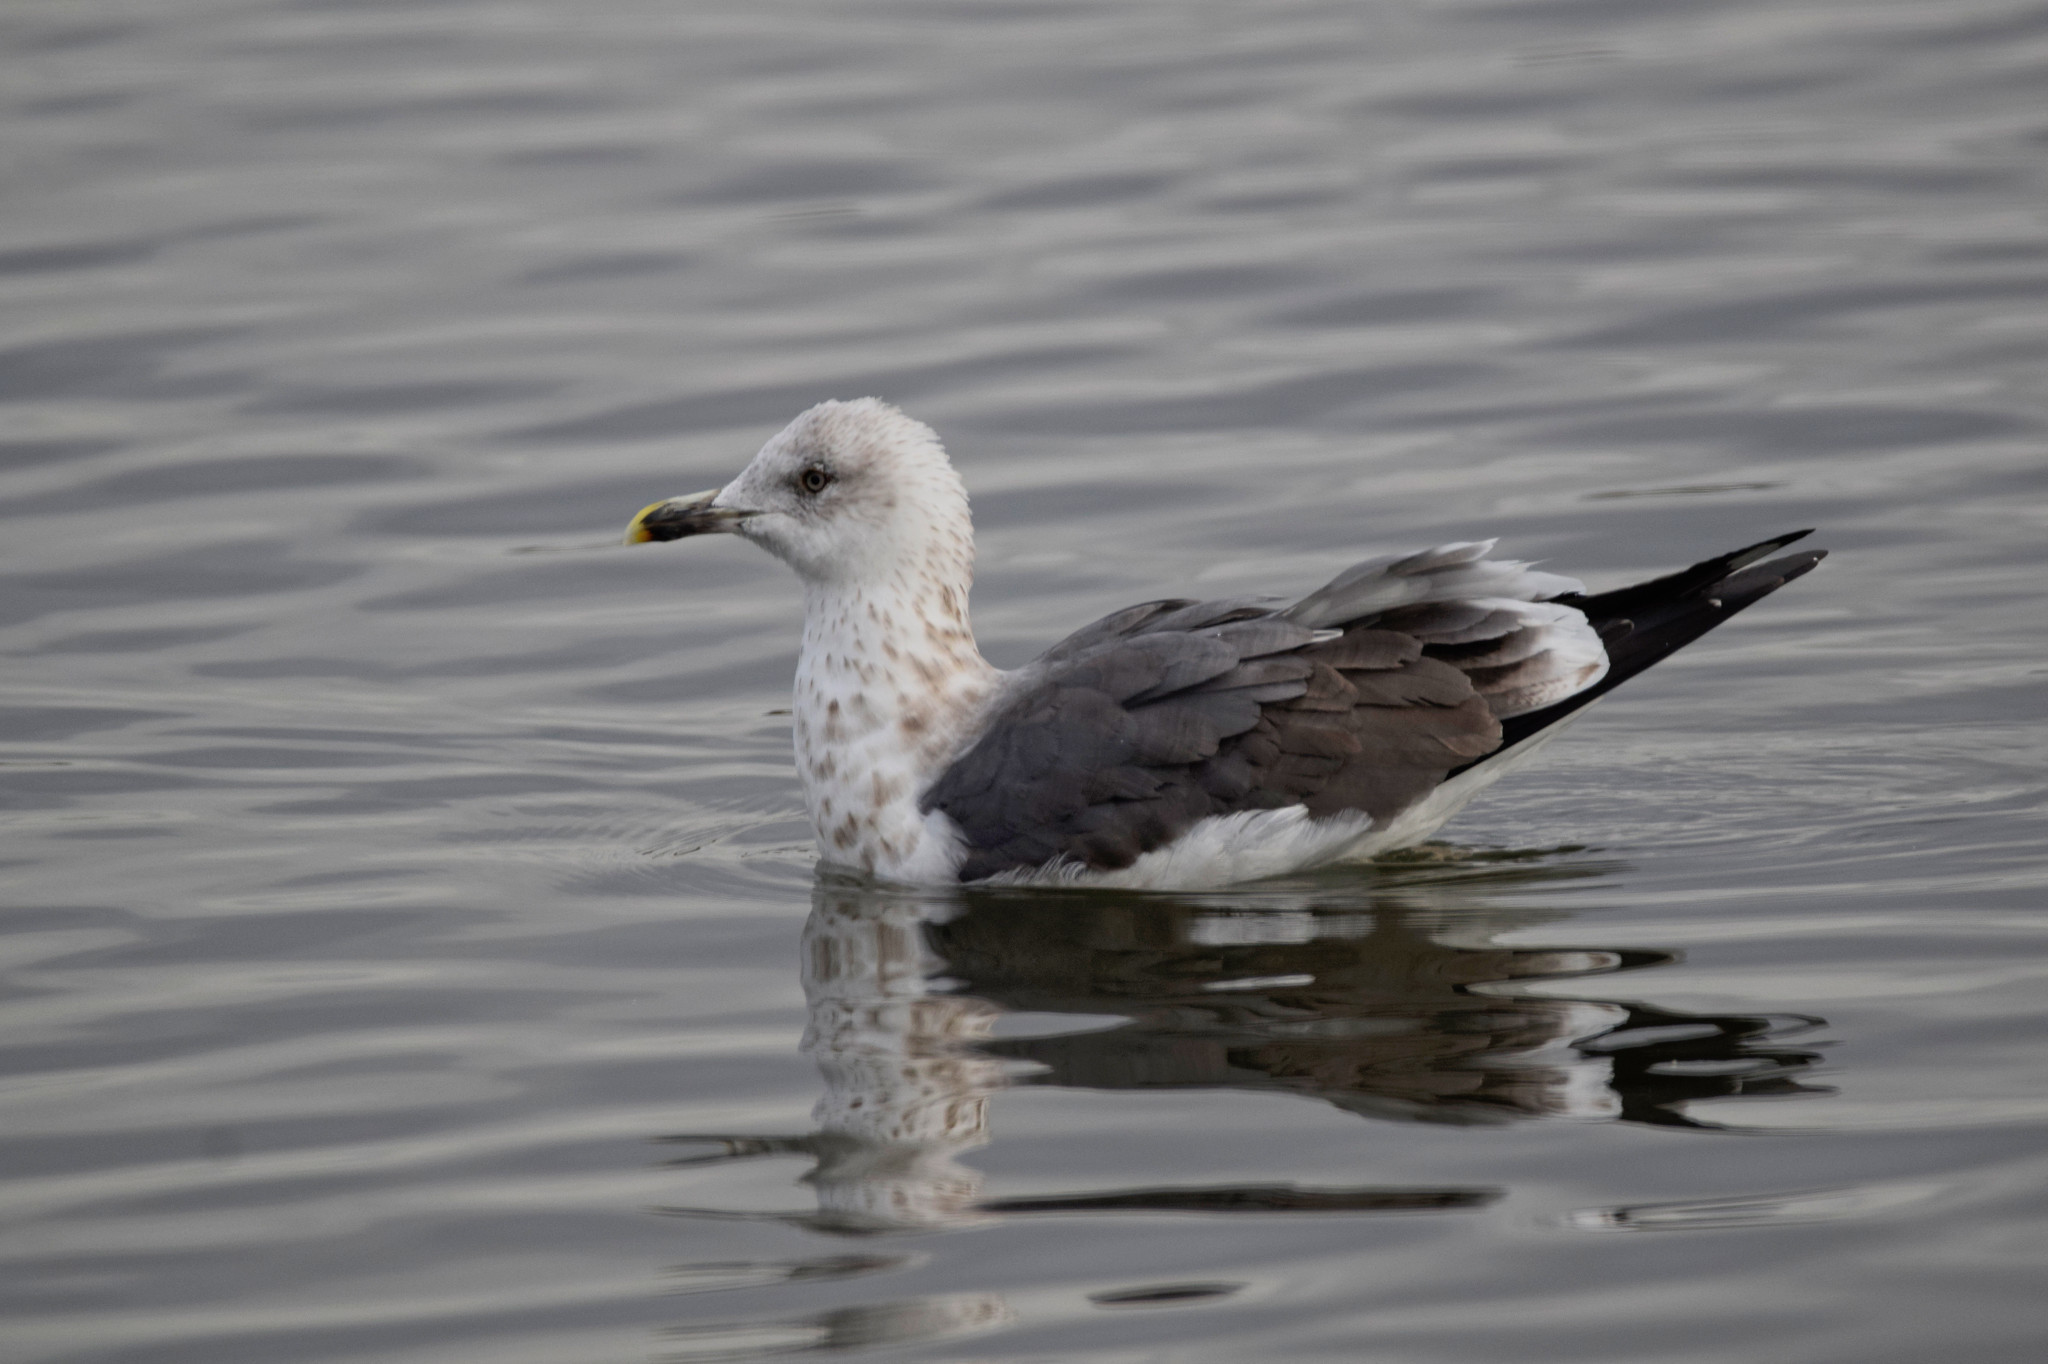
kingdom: Animalia
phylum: Chordata
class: Aves
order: Charadriiformes
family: Laridae
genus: Larus
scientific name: Larus fuscus
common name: Lesser black-backed gull
